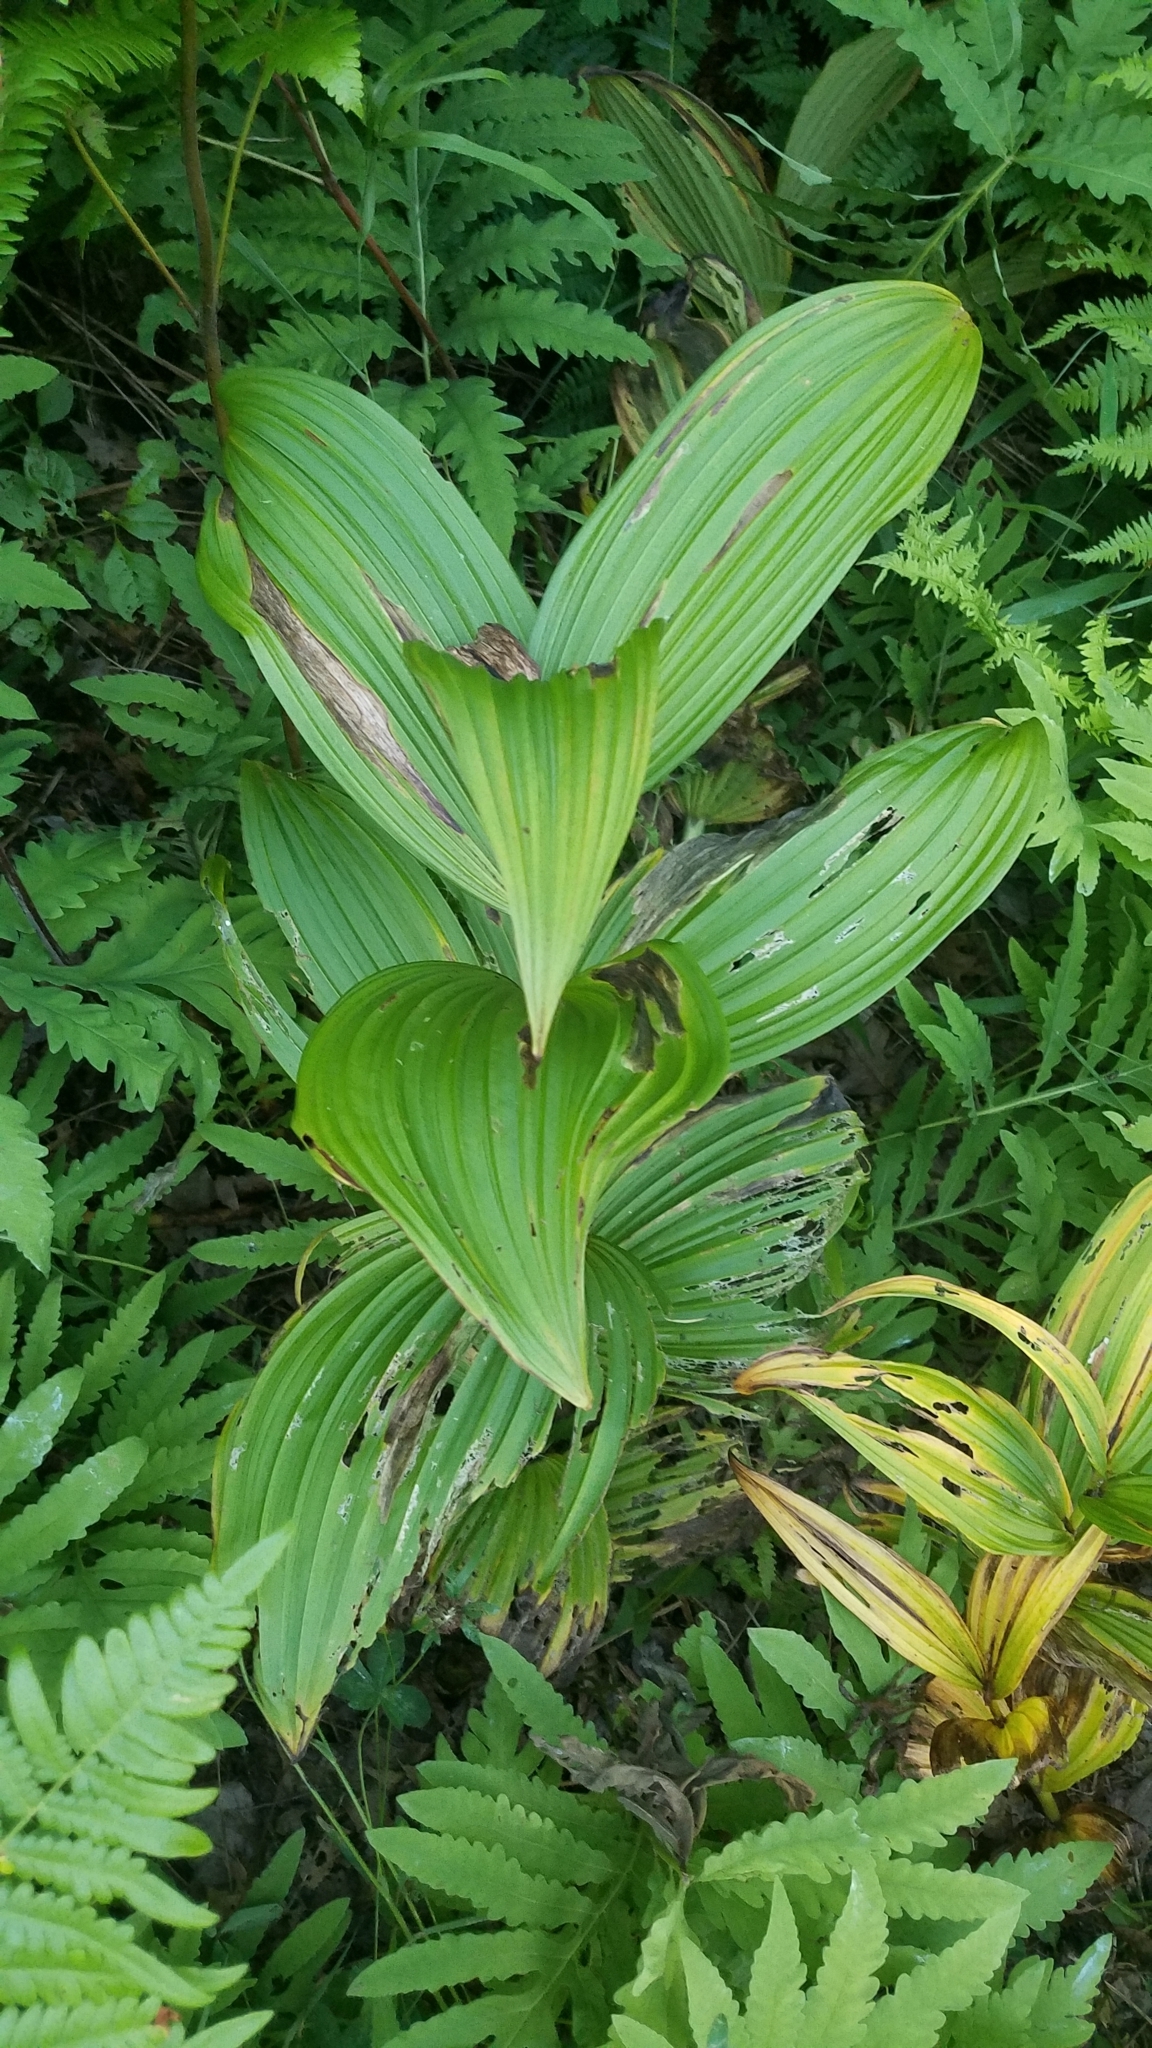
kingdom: Plantae
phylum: Tracheophyta
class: Liliopsida
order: Liliales
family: Melanthiaceae
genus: Veratrum
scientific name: Veratrum viride
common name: American false hellebore
